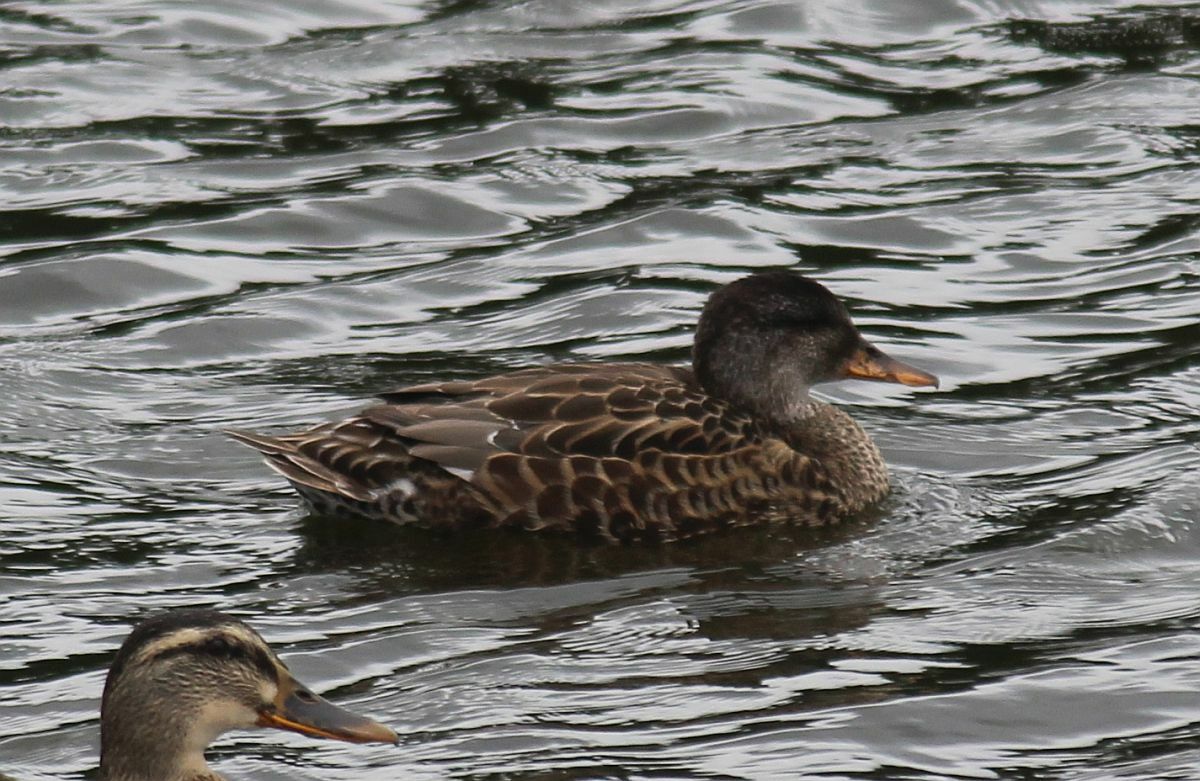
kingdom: Animalia
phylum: Chordata
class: Aves
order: Anseriformes
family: Anatidae
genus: Mareca
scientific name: Mareca strepera
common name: Gadwall
